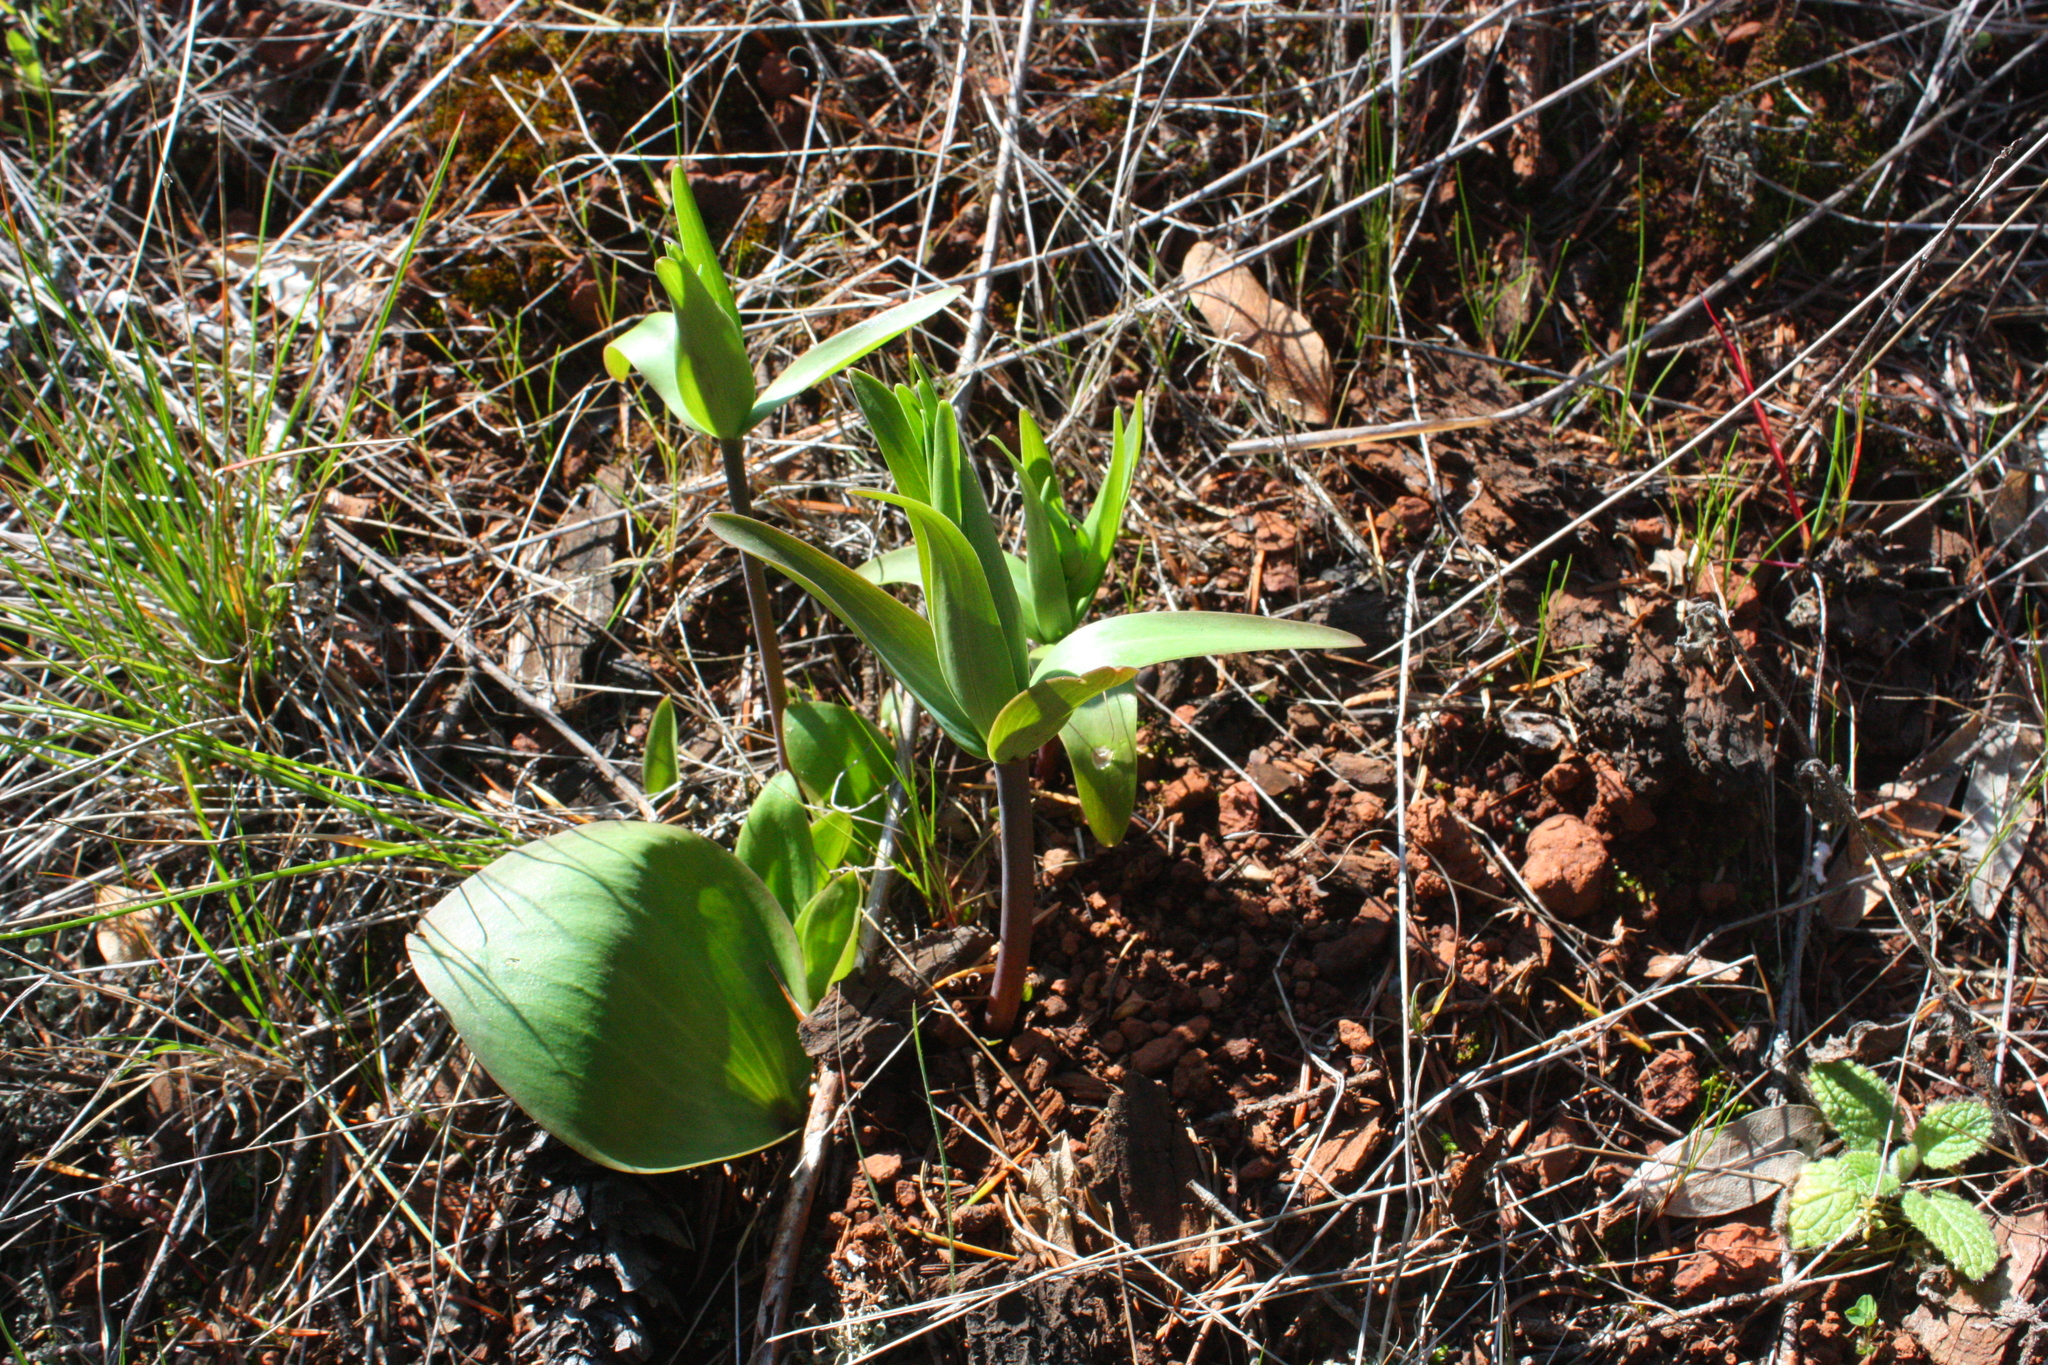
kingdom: Plantae
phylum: Tracheophyta
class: Liliopsida
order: Liliales
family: Liliaceae
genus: Fritillaria
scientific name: Fritillaria affinis
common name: Ojai fritillary
